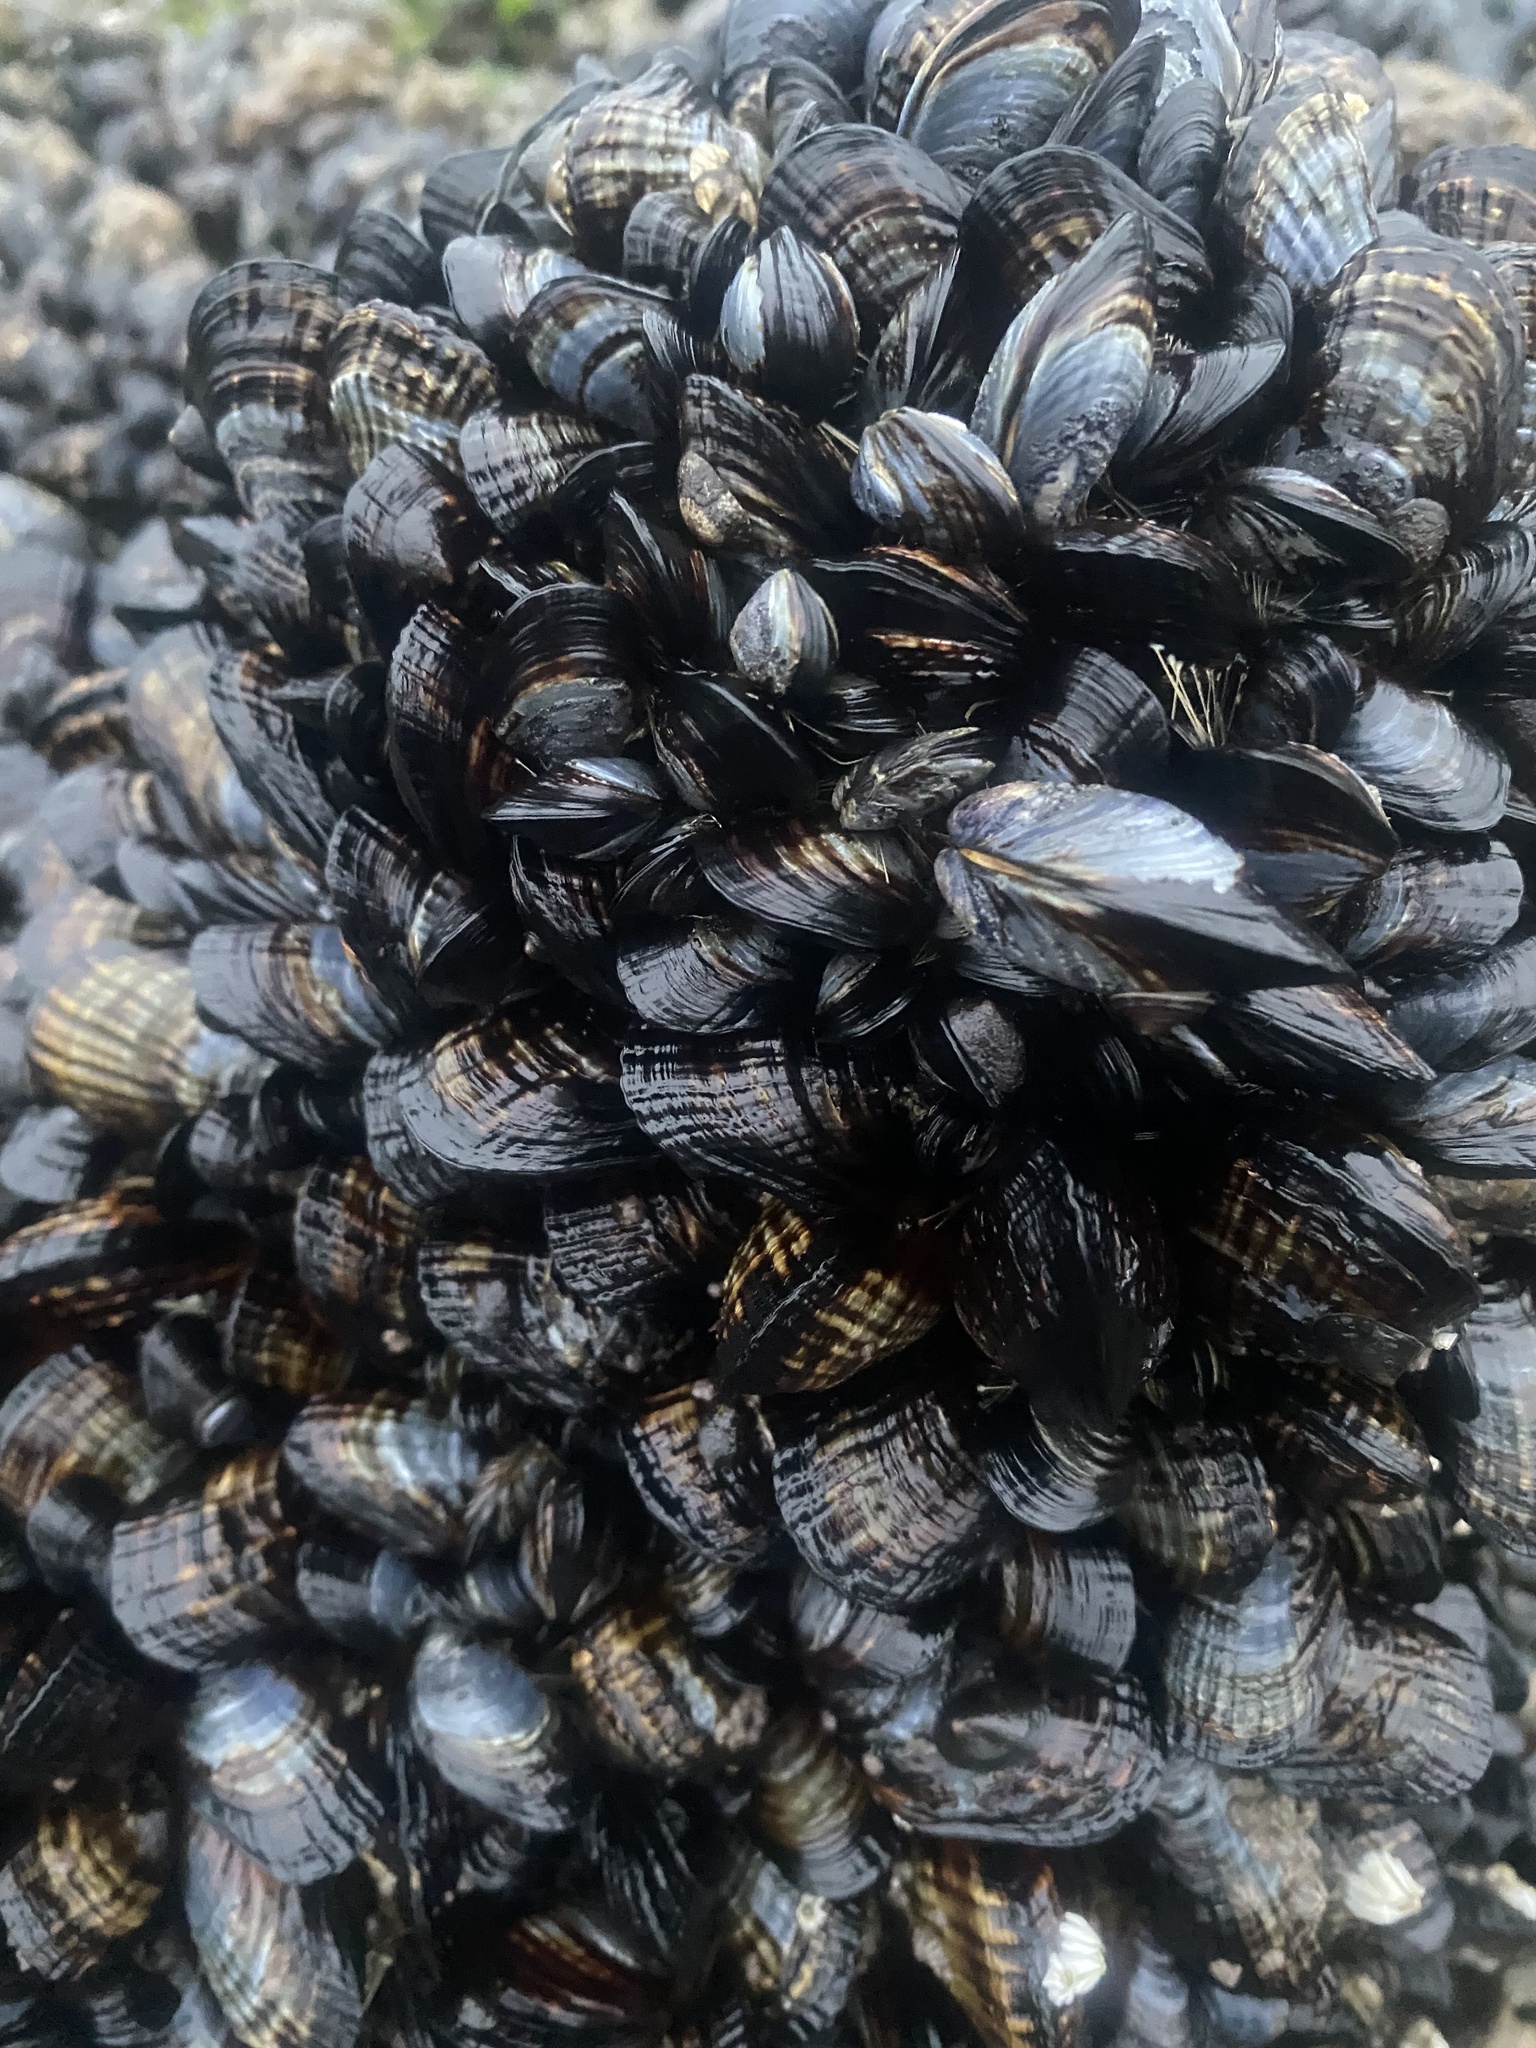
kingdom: Animalia
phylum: Mollusca
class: Bivalvia
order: Mytilida
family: Mytilidae
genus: Mytilus
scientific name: Mytilus californianus
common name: California mussel
